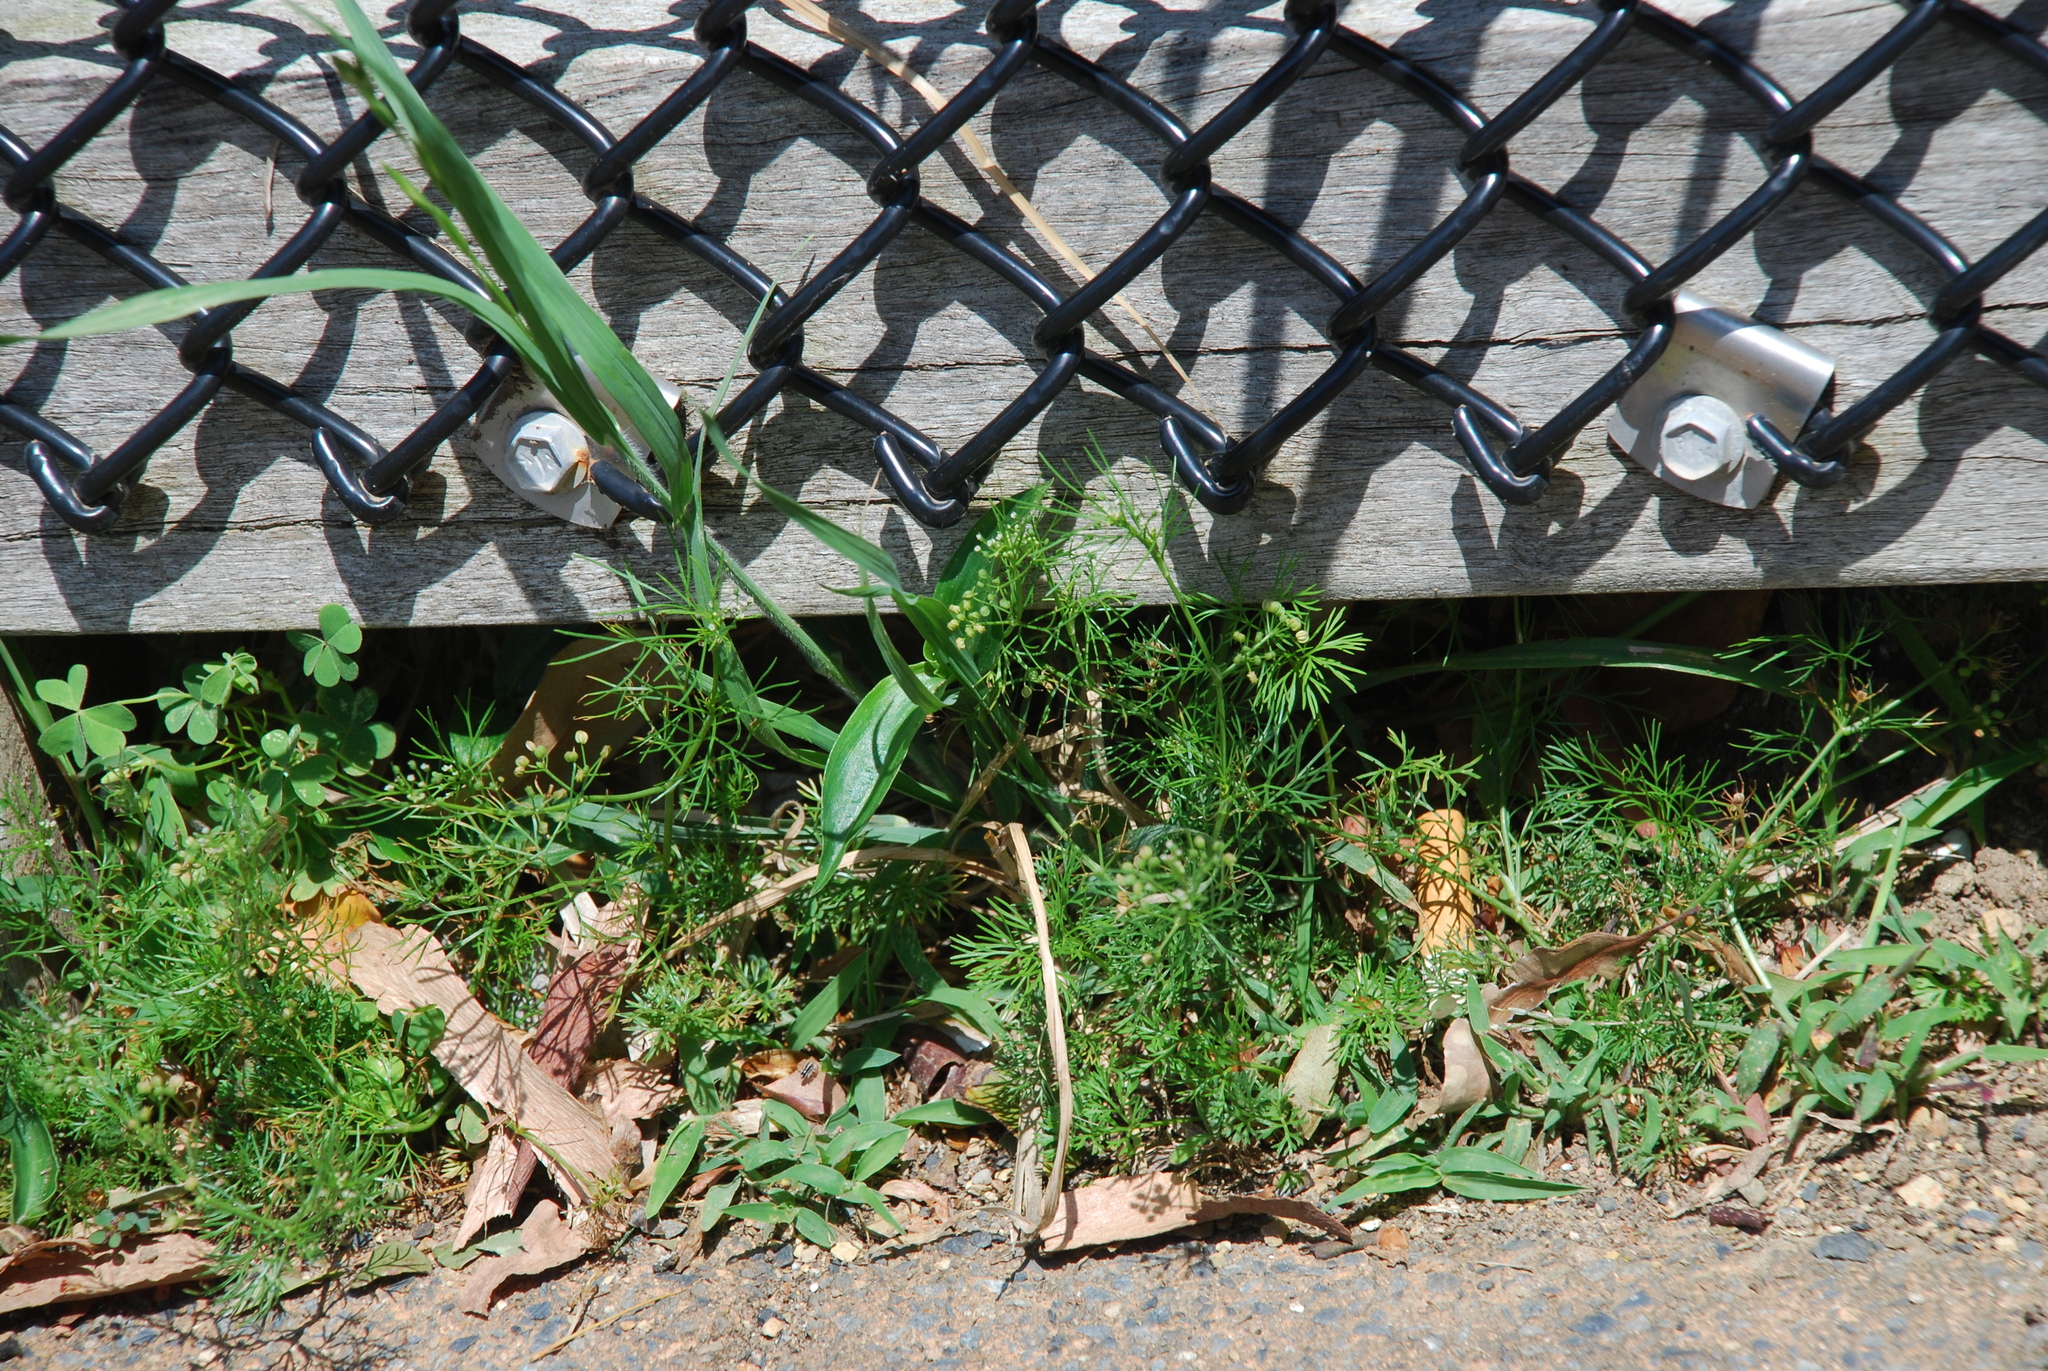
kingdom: Plantae
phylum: Tracheophyta
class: Magnoliopsida
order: Apiales
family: Apiaceae
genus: Cyclospermum
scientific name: Cyclospermum leptophyllum
